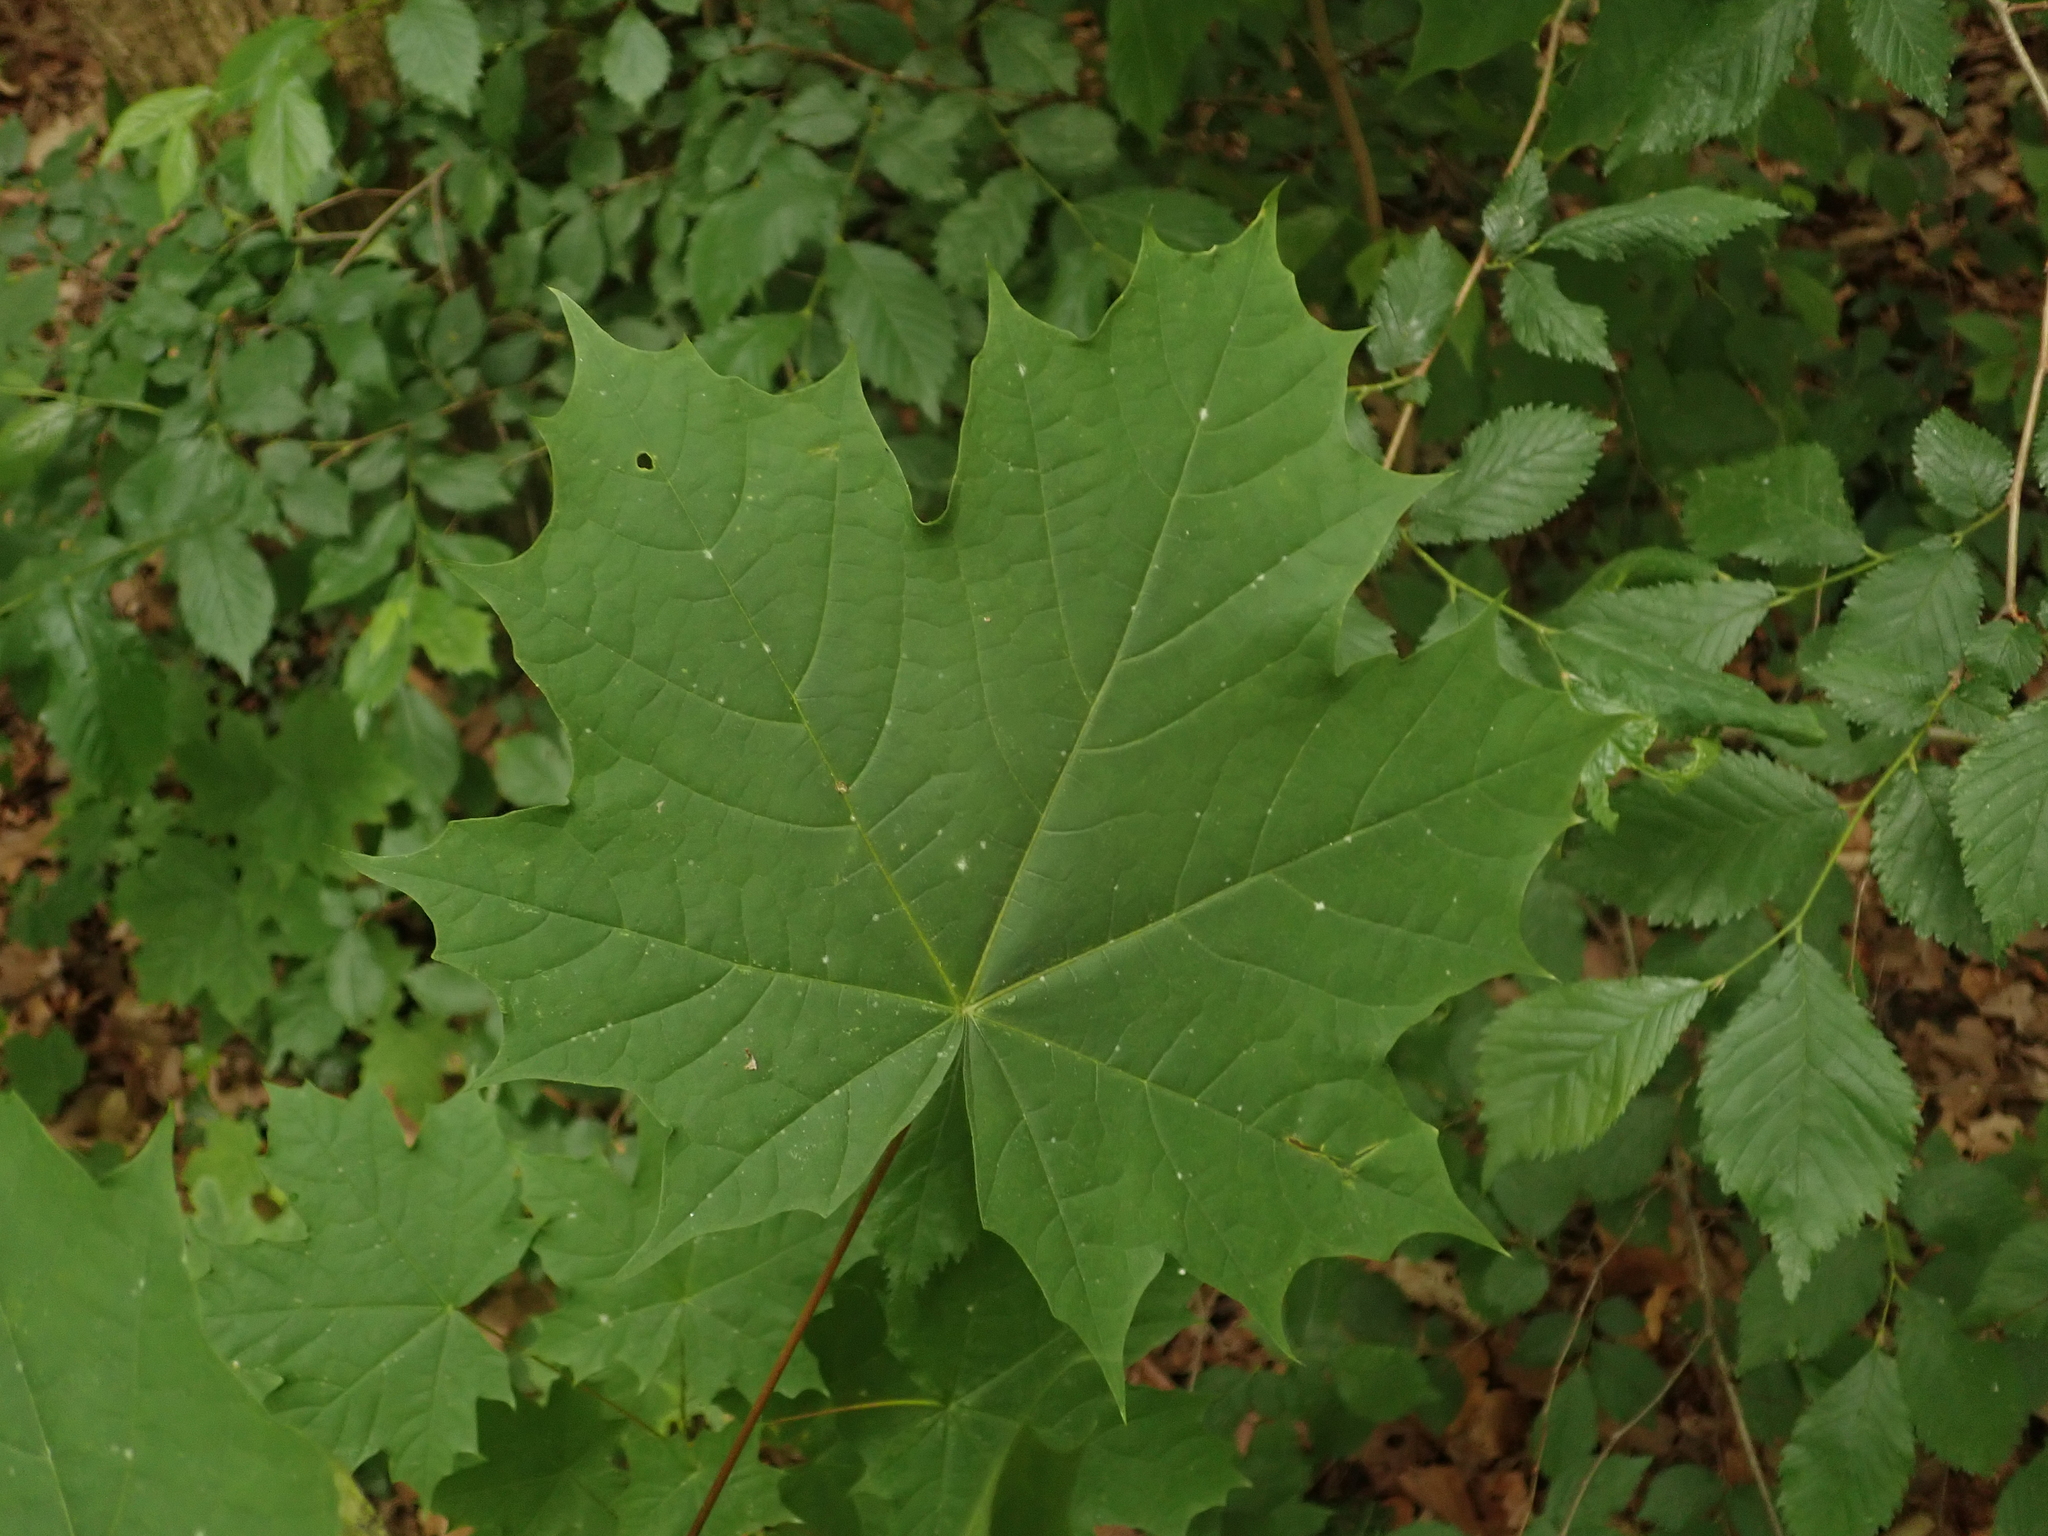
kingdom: Plantae
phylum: Tracheophyta
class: Magnoliopsida
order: Sapindales
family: Sapindaceae
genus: Acer
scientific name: Acer platanoides
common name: Norway maple
